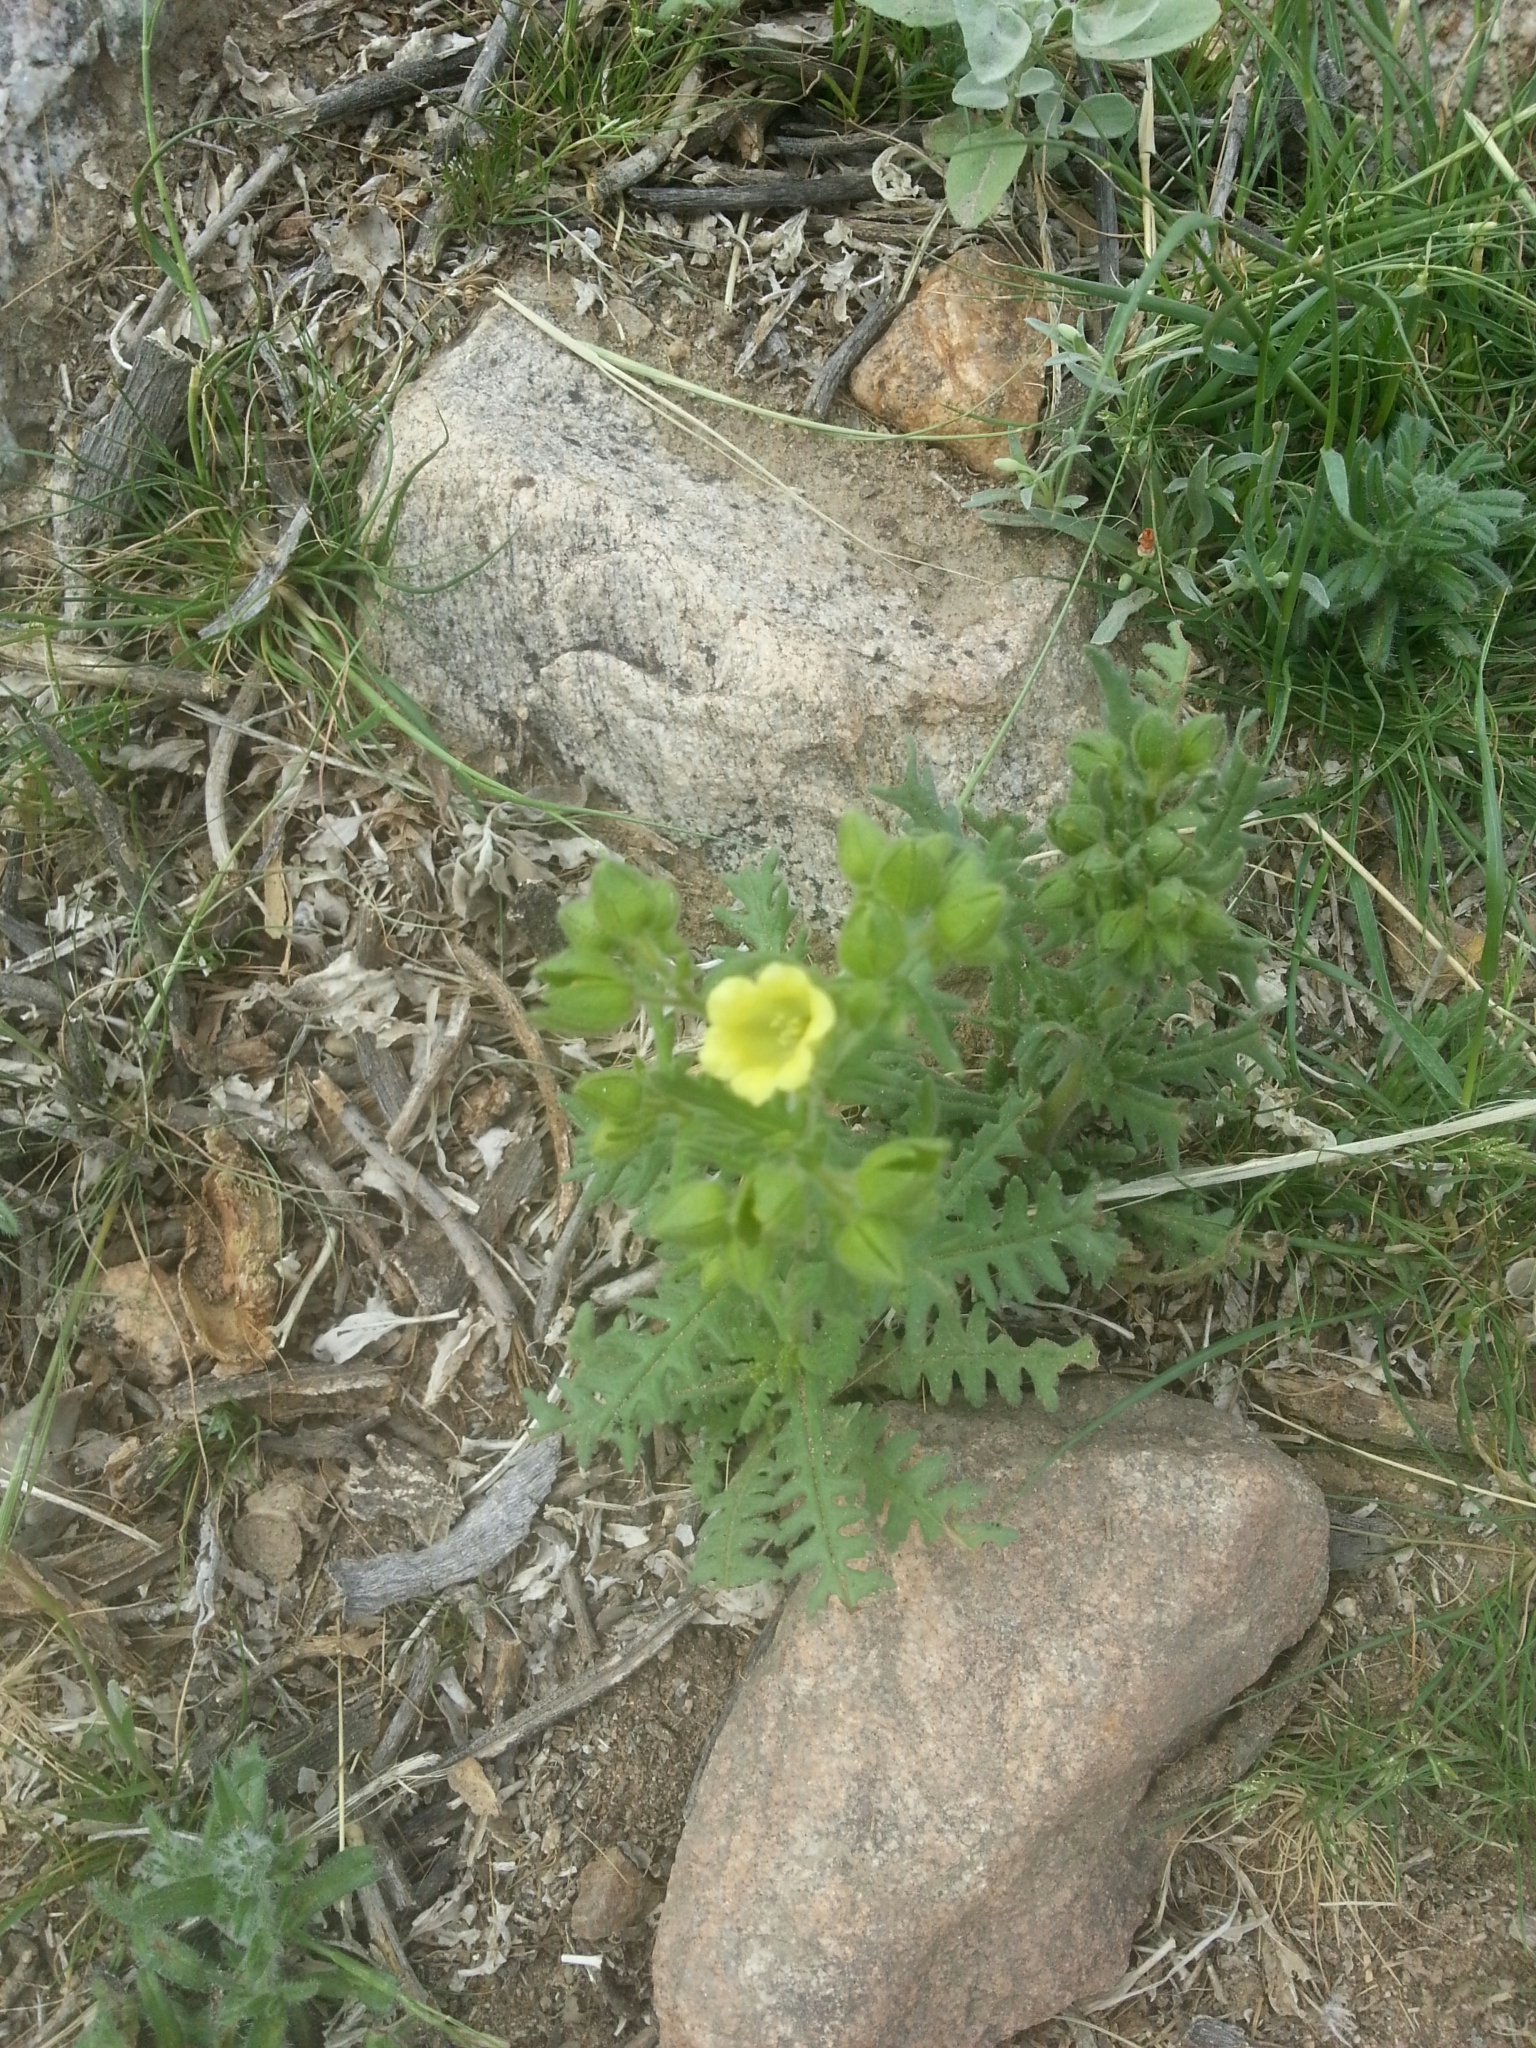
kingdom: Plantae
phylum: Tracheophyta
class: Magnoliopsida
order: Boraginales
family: Hydrophyllaceae
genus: Emmenanthe
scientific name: Emmenanthe penduliflora
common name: Whispering-bells
